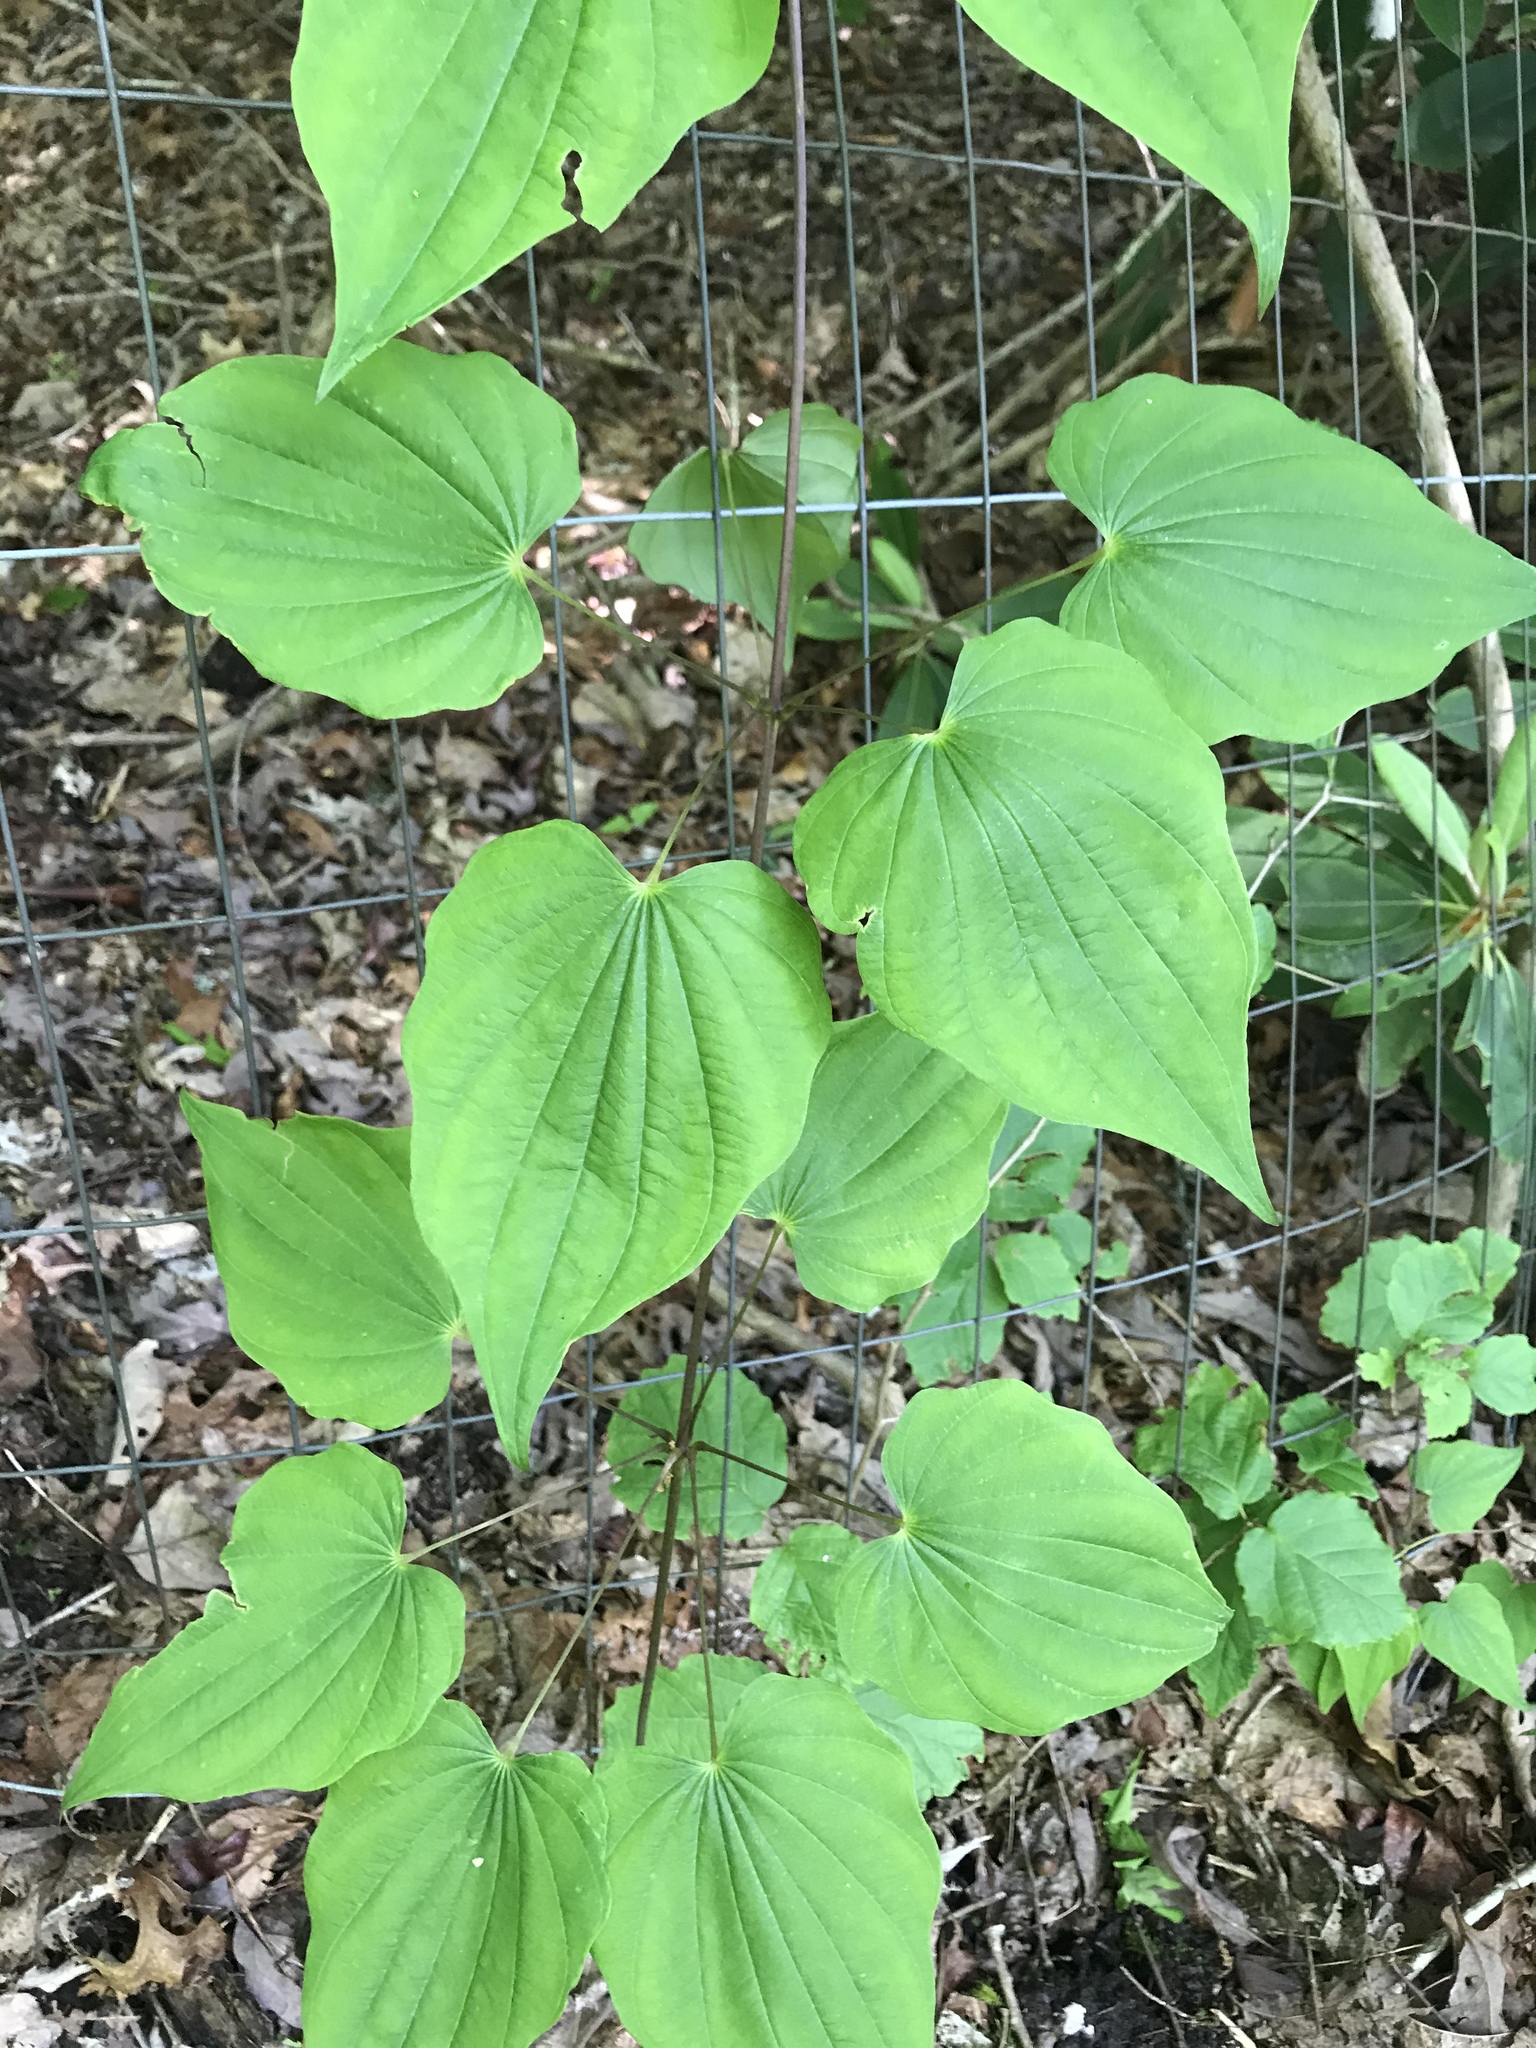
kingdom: Plantae
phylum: Tracheophyta
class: Liliopsida
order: Dioscoreales
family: Dioscoreaceae
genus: Dioscorea
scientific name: Dioscorea villosa
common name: Wild yam
